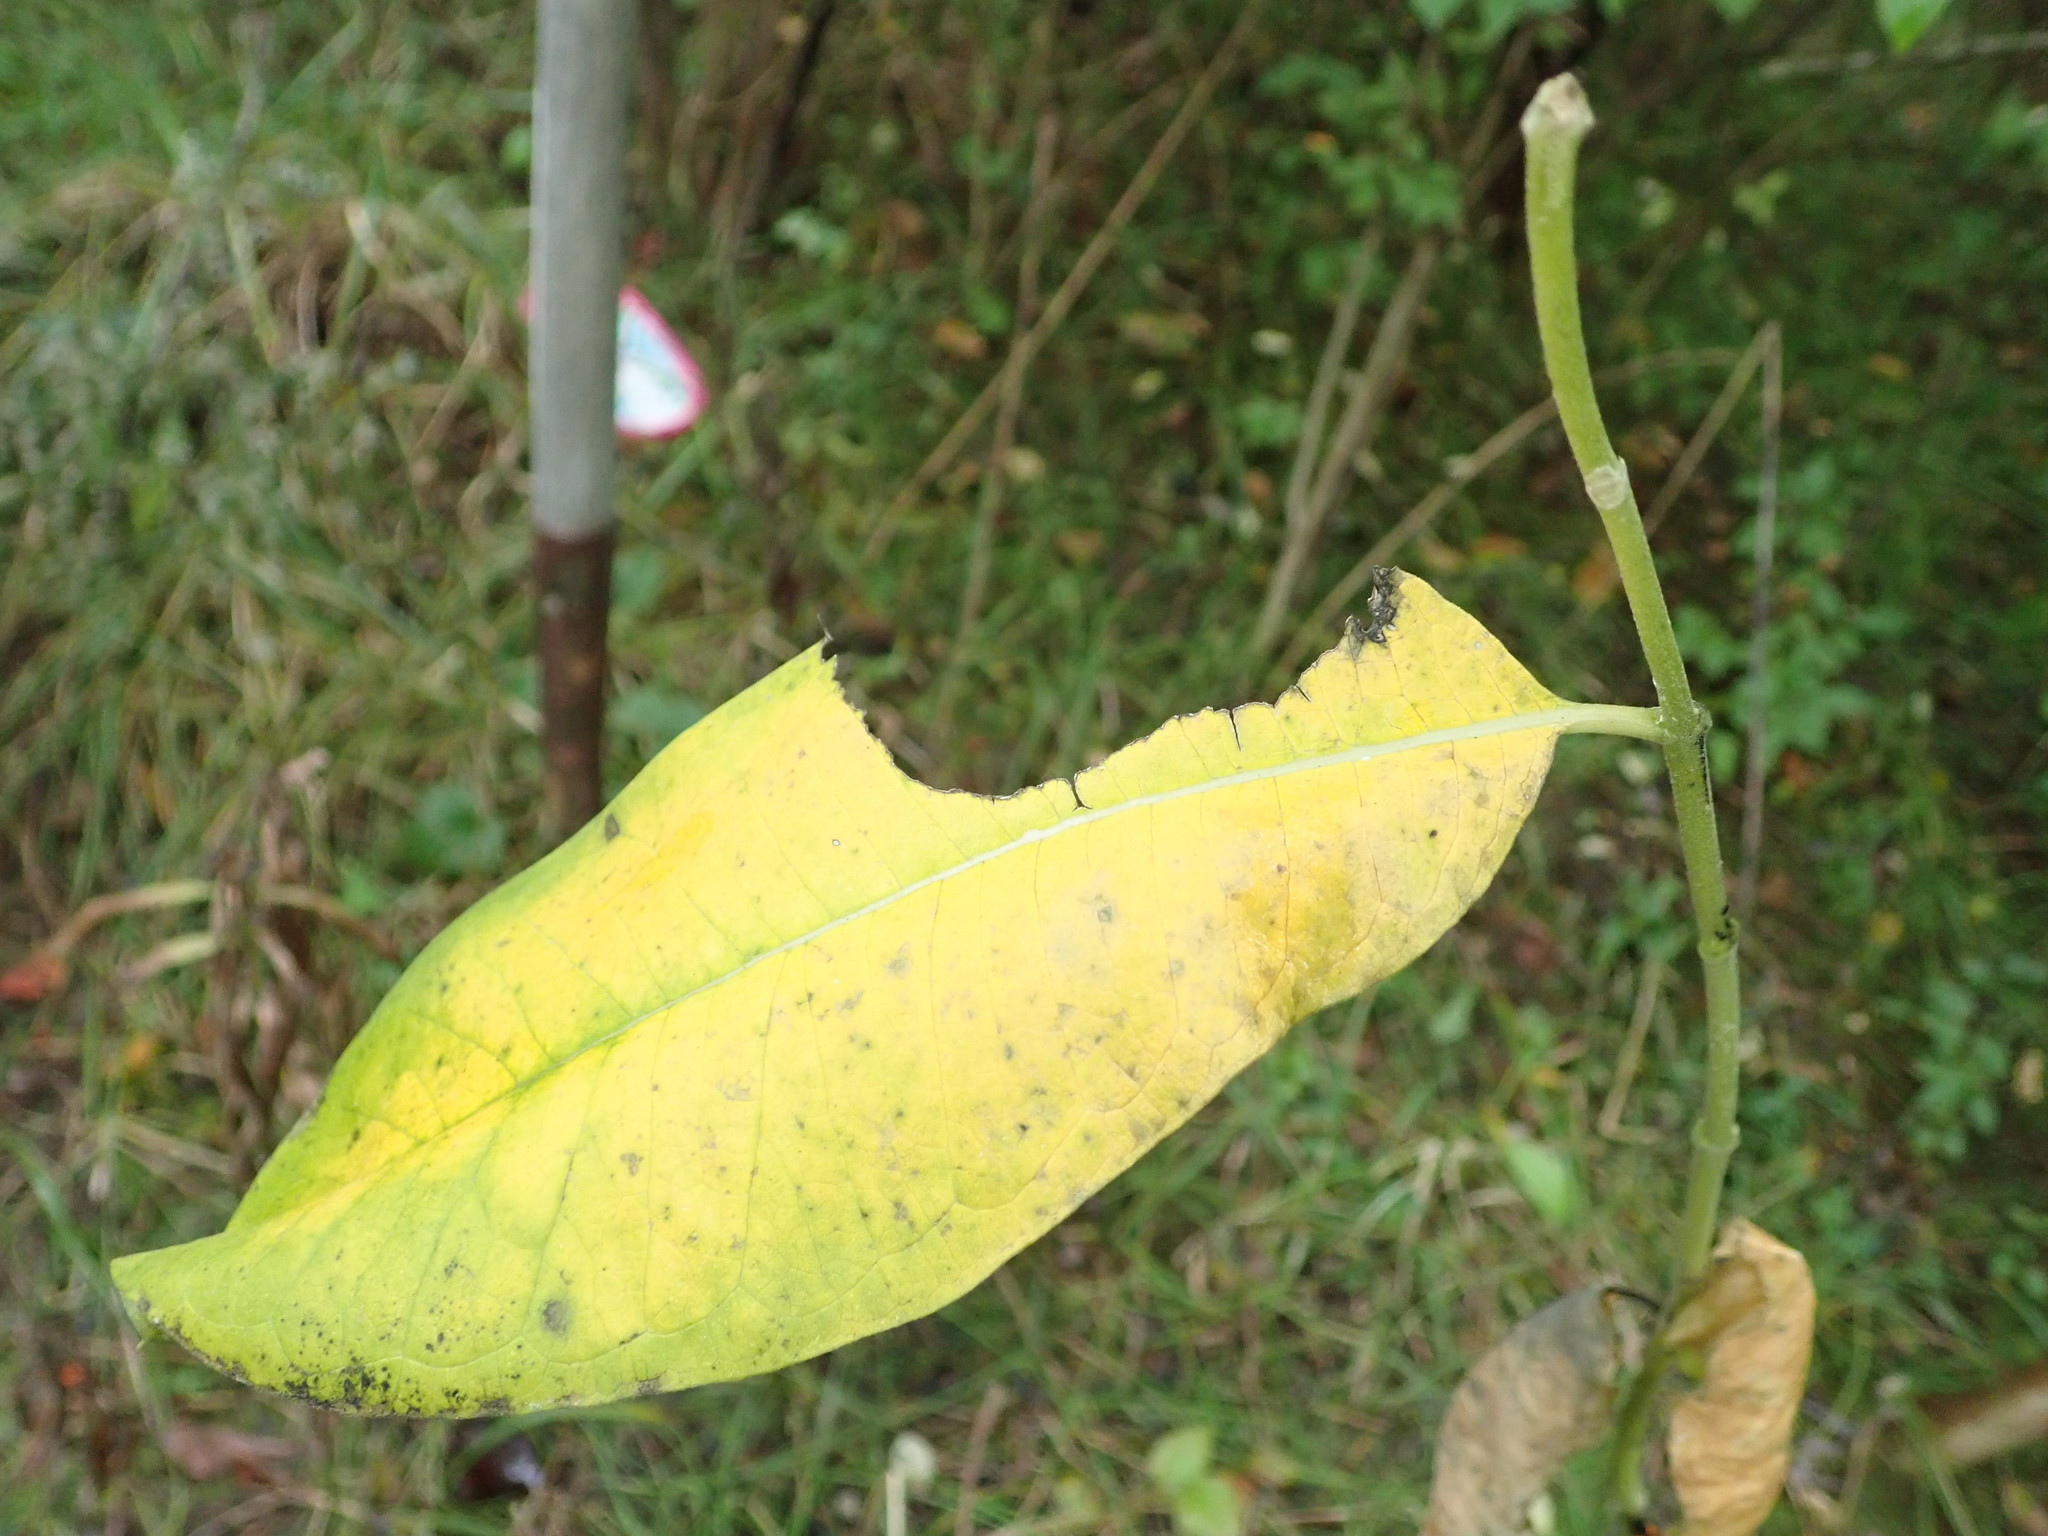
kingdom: Plantae
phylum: Tracheophyta
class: Magnoliopsida
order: Gentianales
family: Apocynaceae
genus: Asclepias
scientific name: Asclepias syriaca
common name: Common milkweed
